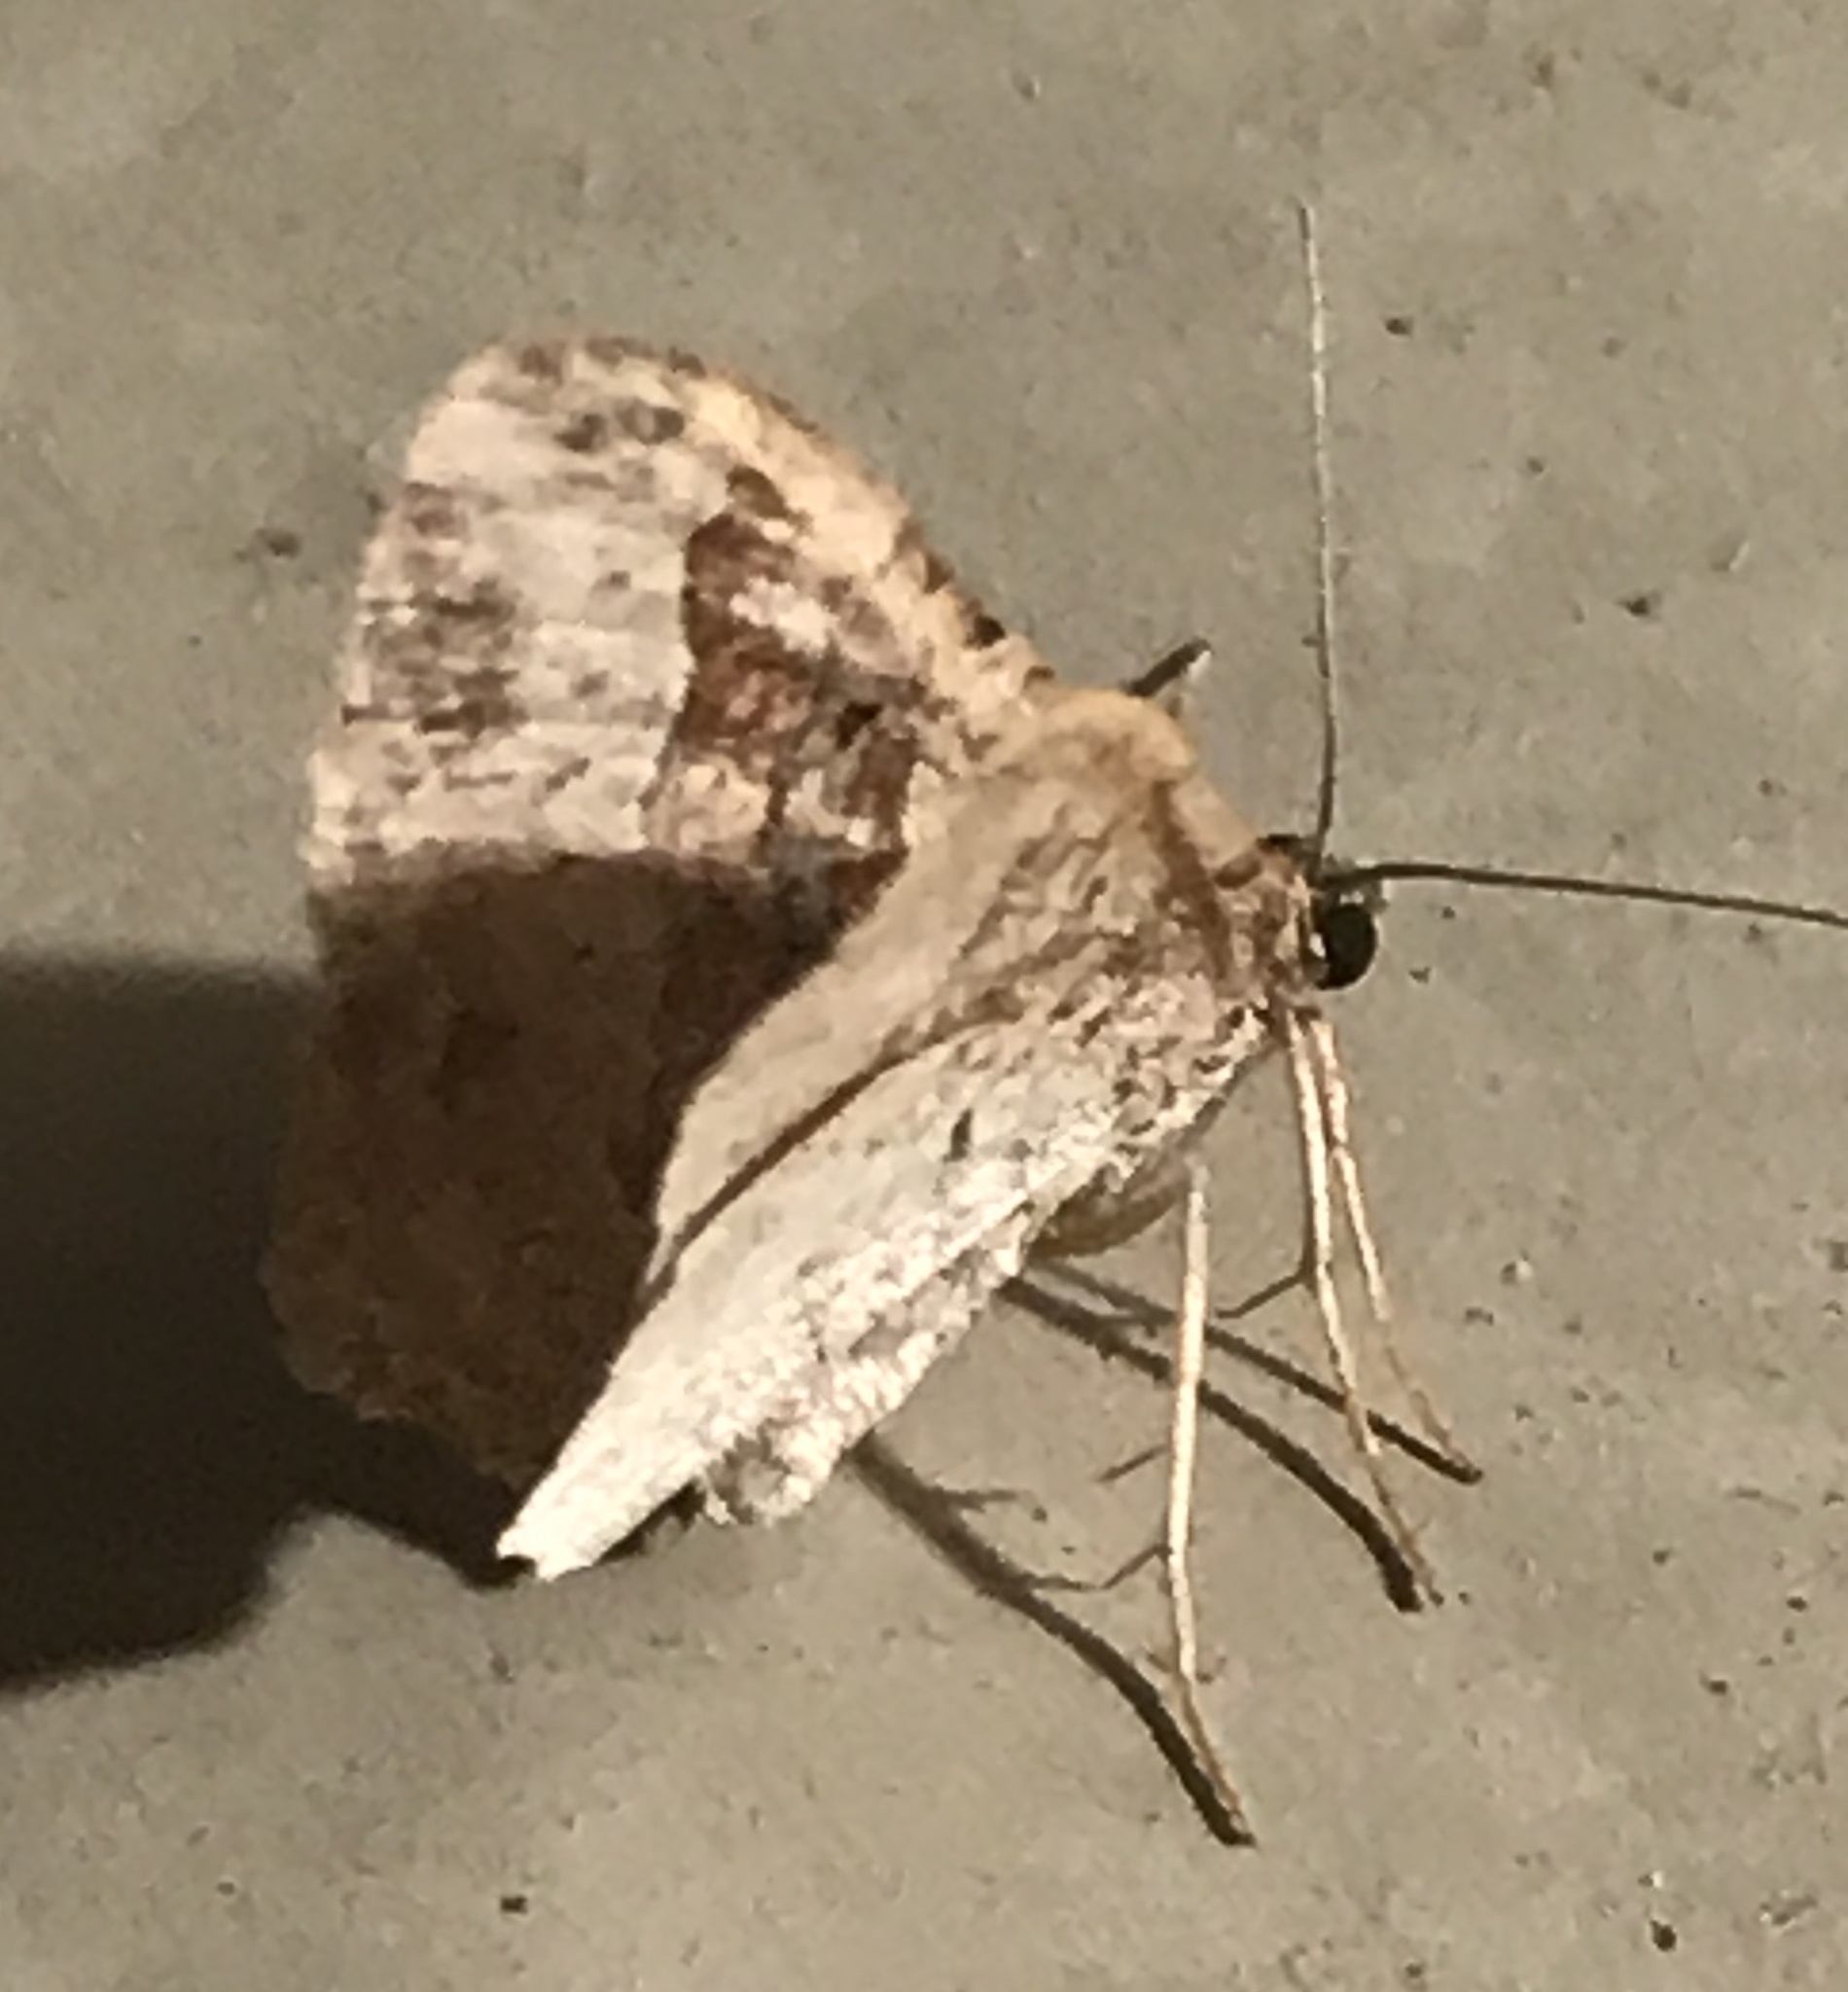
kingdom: Animalia
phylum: Arthropoda
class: Insecta
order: Lepidoptera
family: Geometridae
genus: Costaconvexa
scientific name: Costaconvexa centrostrigaria
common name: Bent-line carpet
